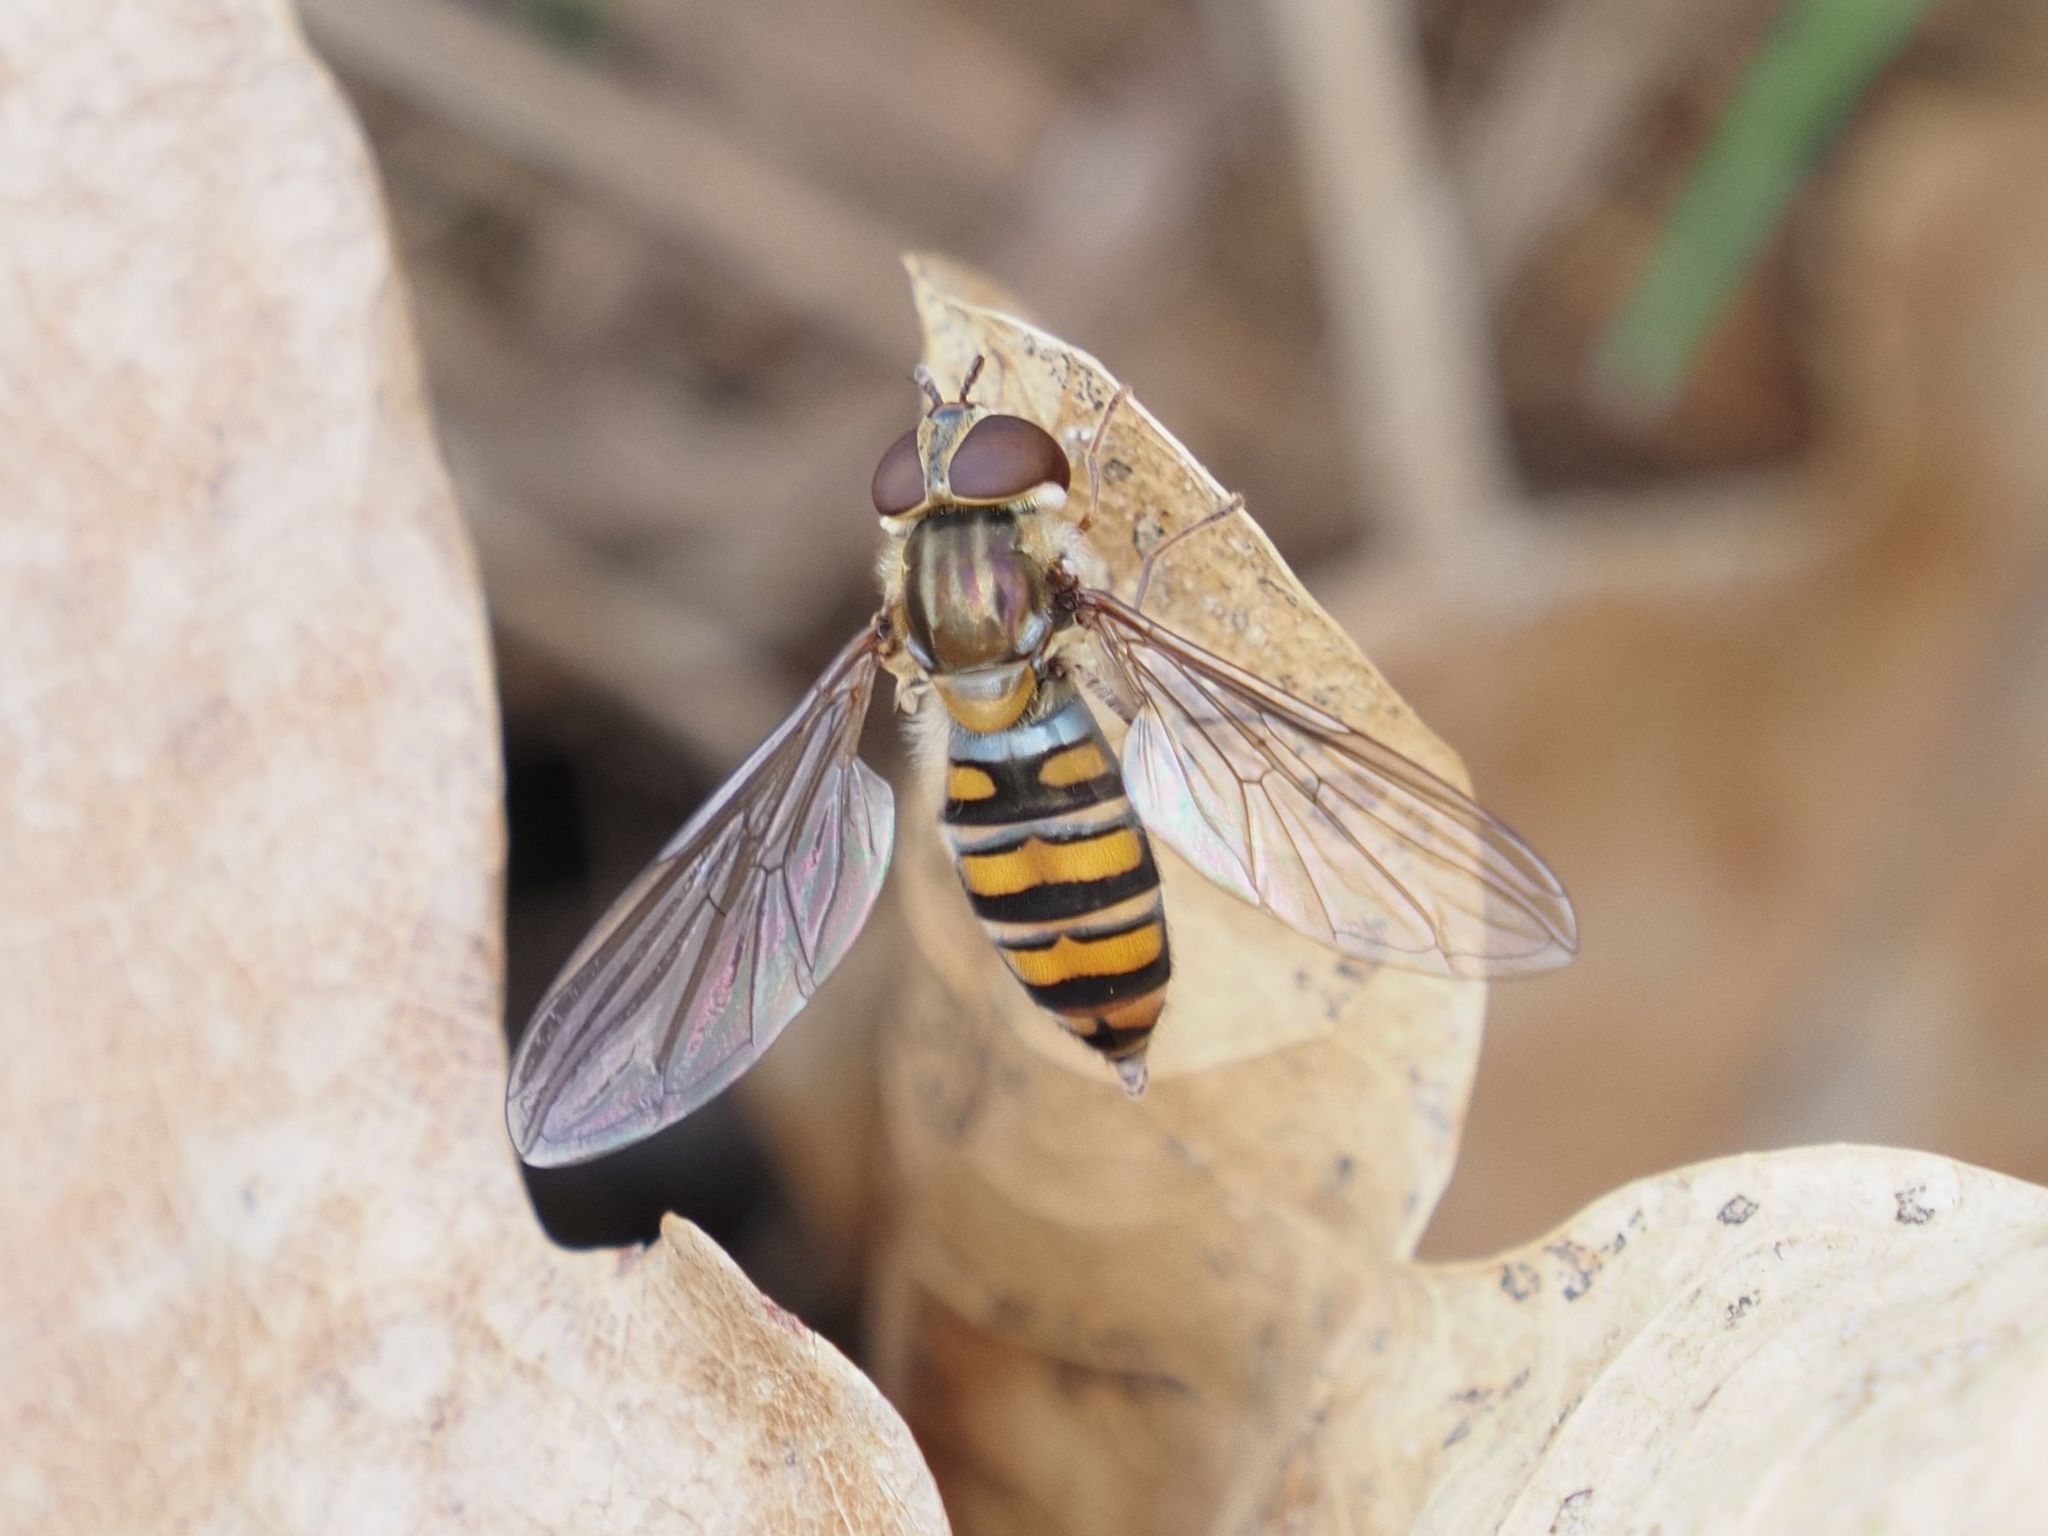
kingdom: Animalia
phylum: Arthropoda
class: Insecta
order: Diptera
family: Syrphidae
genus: Episyrphus
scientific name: Episyrphus balteatus
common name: Marmalade hoverfly
